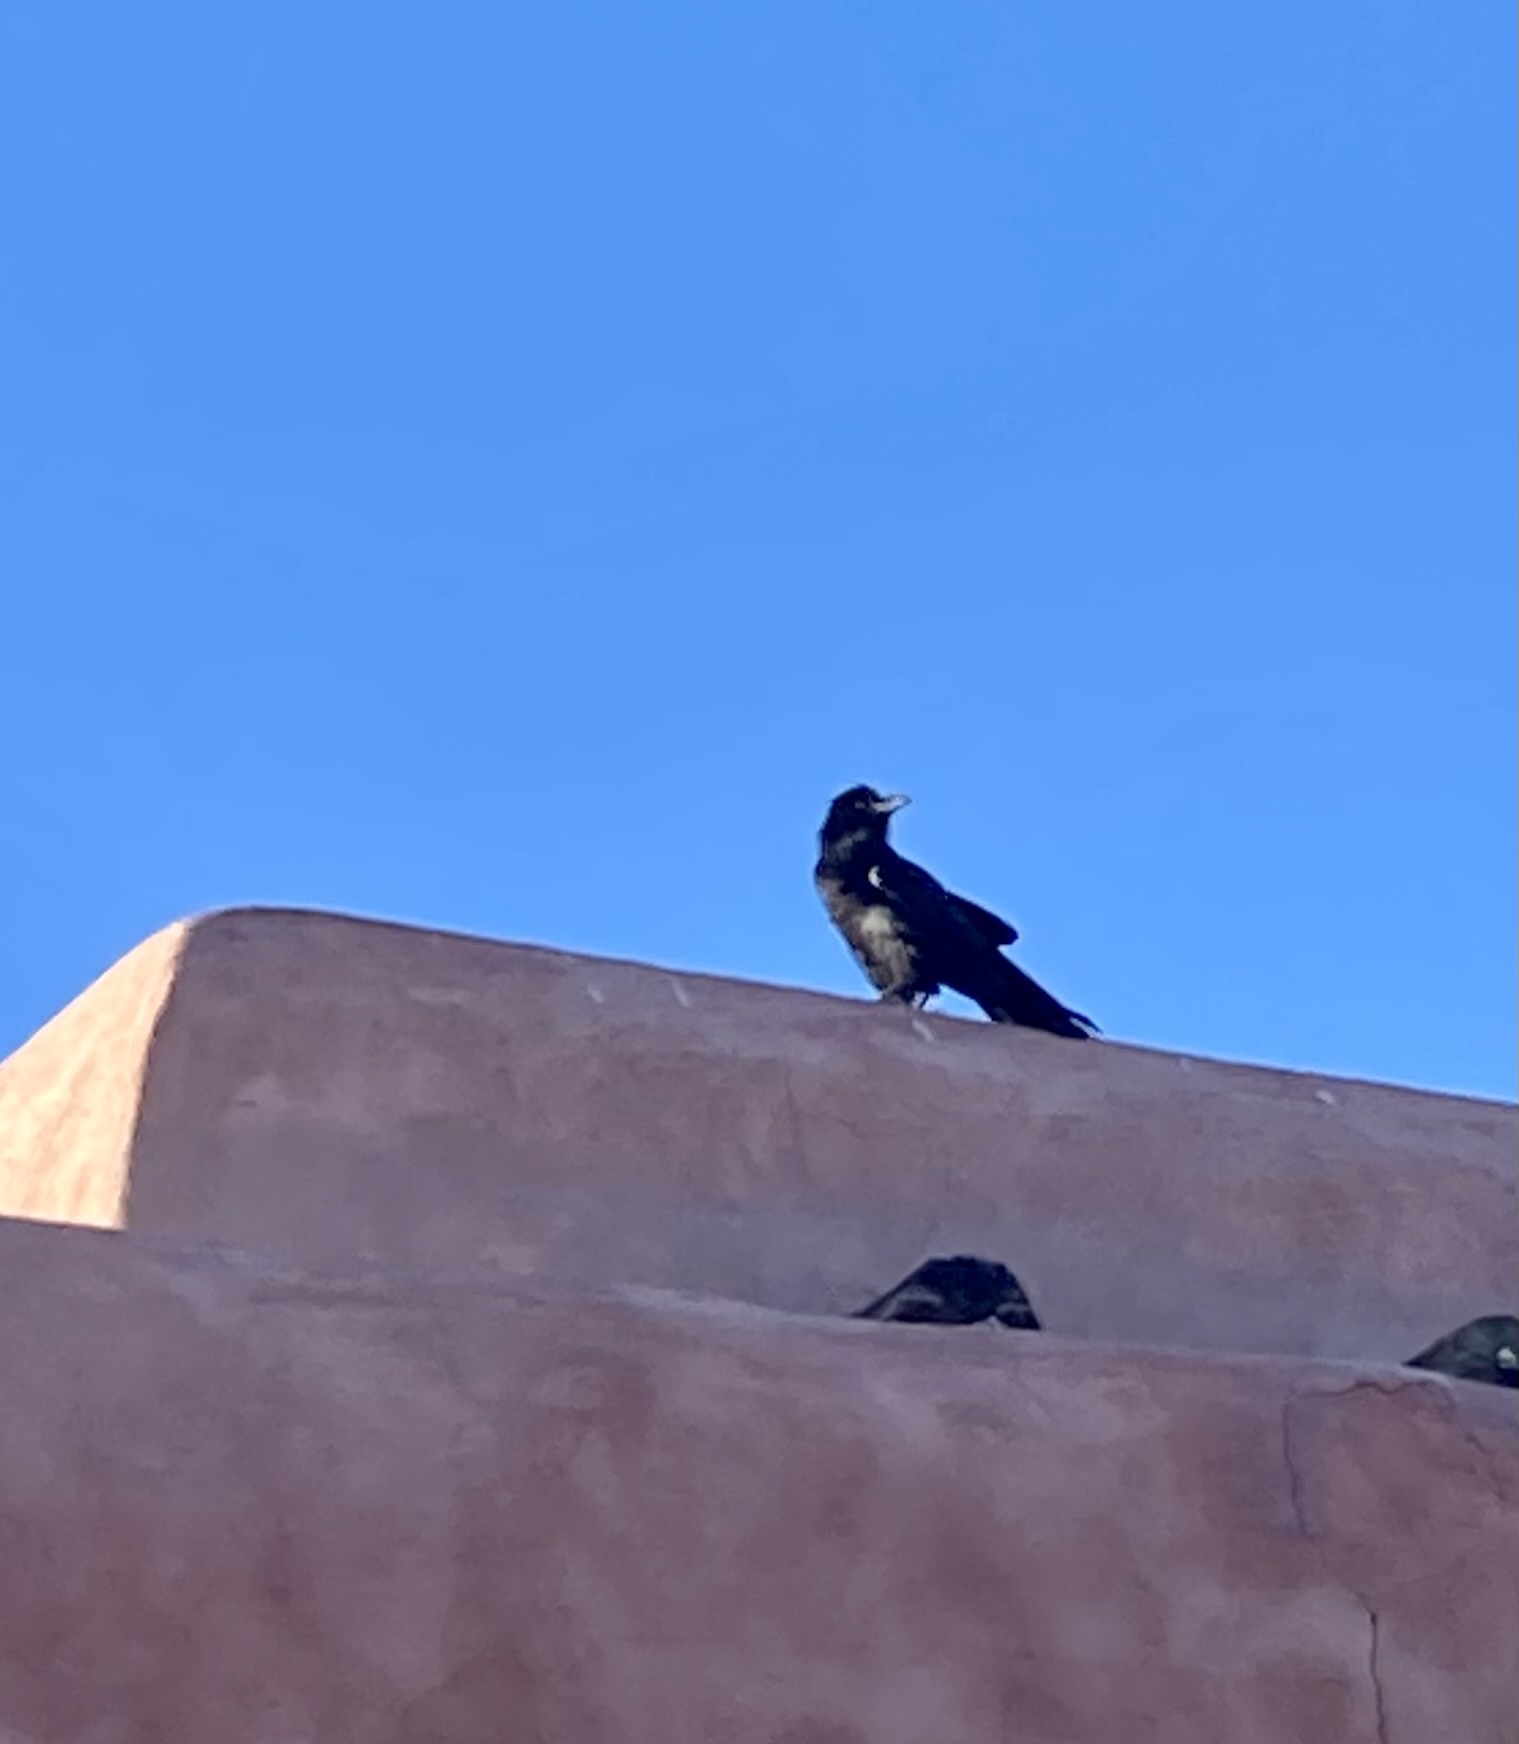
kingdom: Animalia
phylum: Chordata
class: Aves
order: Passeriformes
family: Corvidae
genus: Corvus
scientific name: Corvus corax
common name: Common raven
